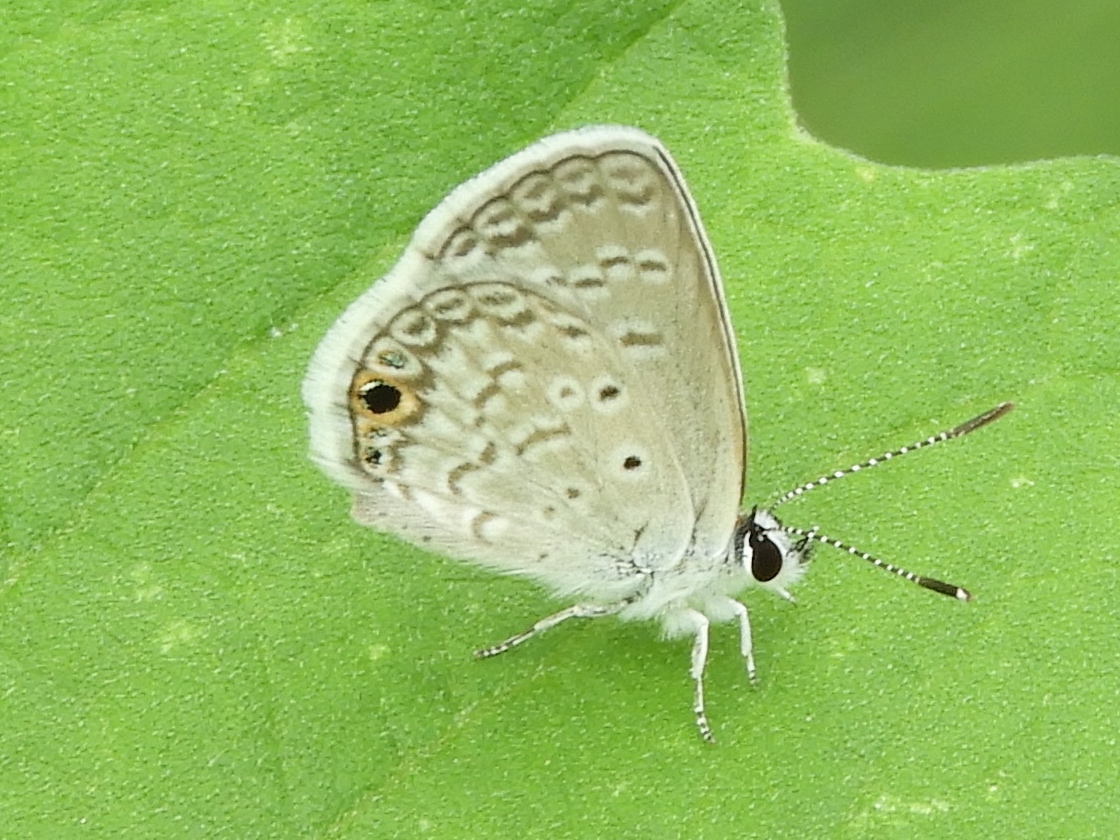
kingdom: Animalia
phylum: Arthropoda
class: Insecta
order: Lepidoptera
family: Lycaenidae
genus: Echinargus
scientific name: Echinargus isola
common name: Reakirt's blue
